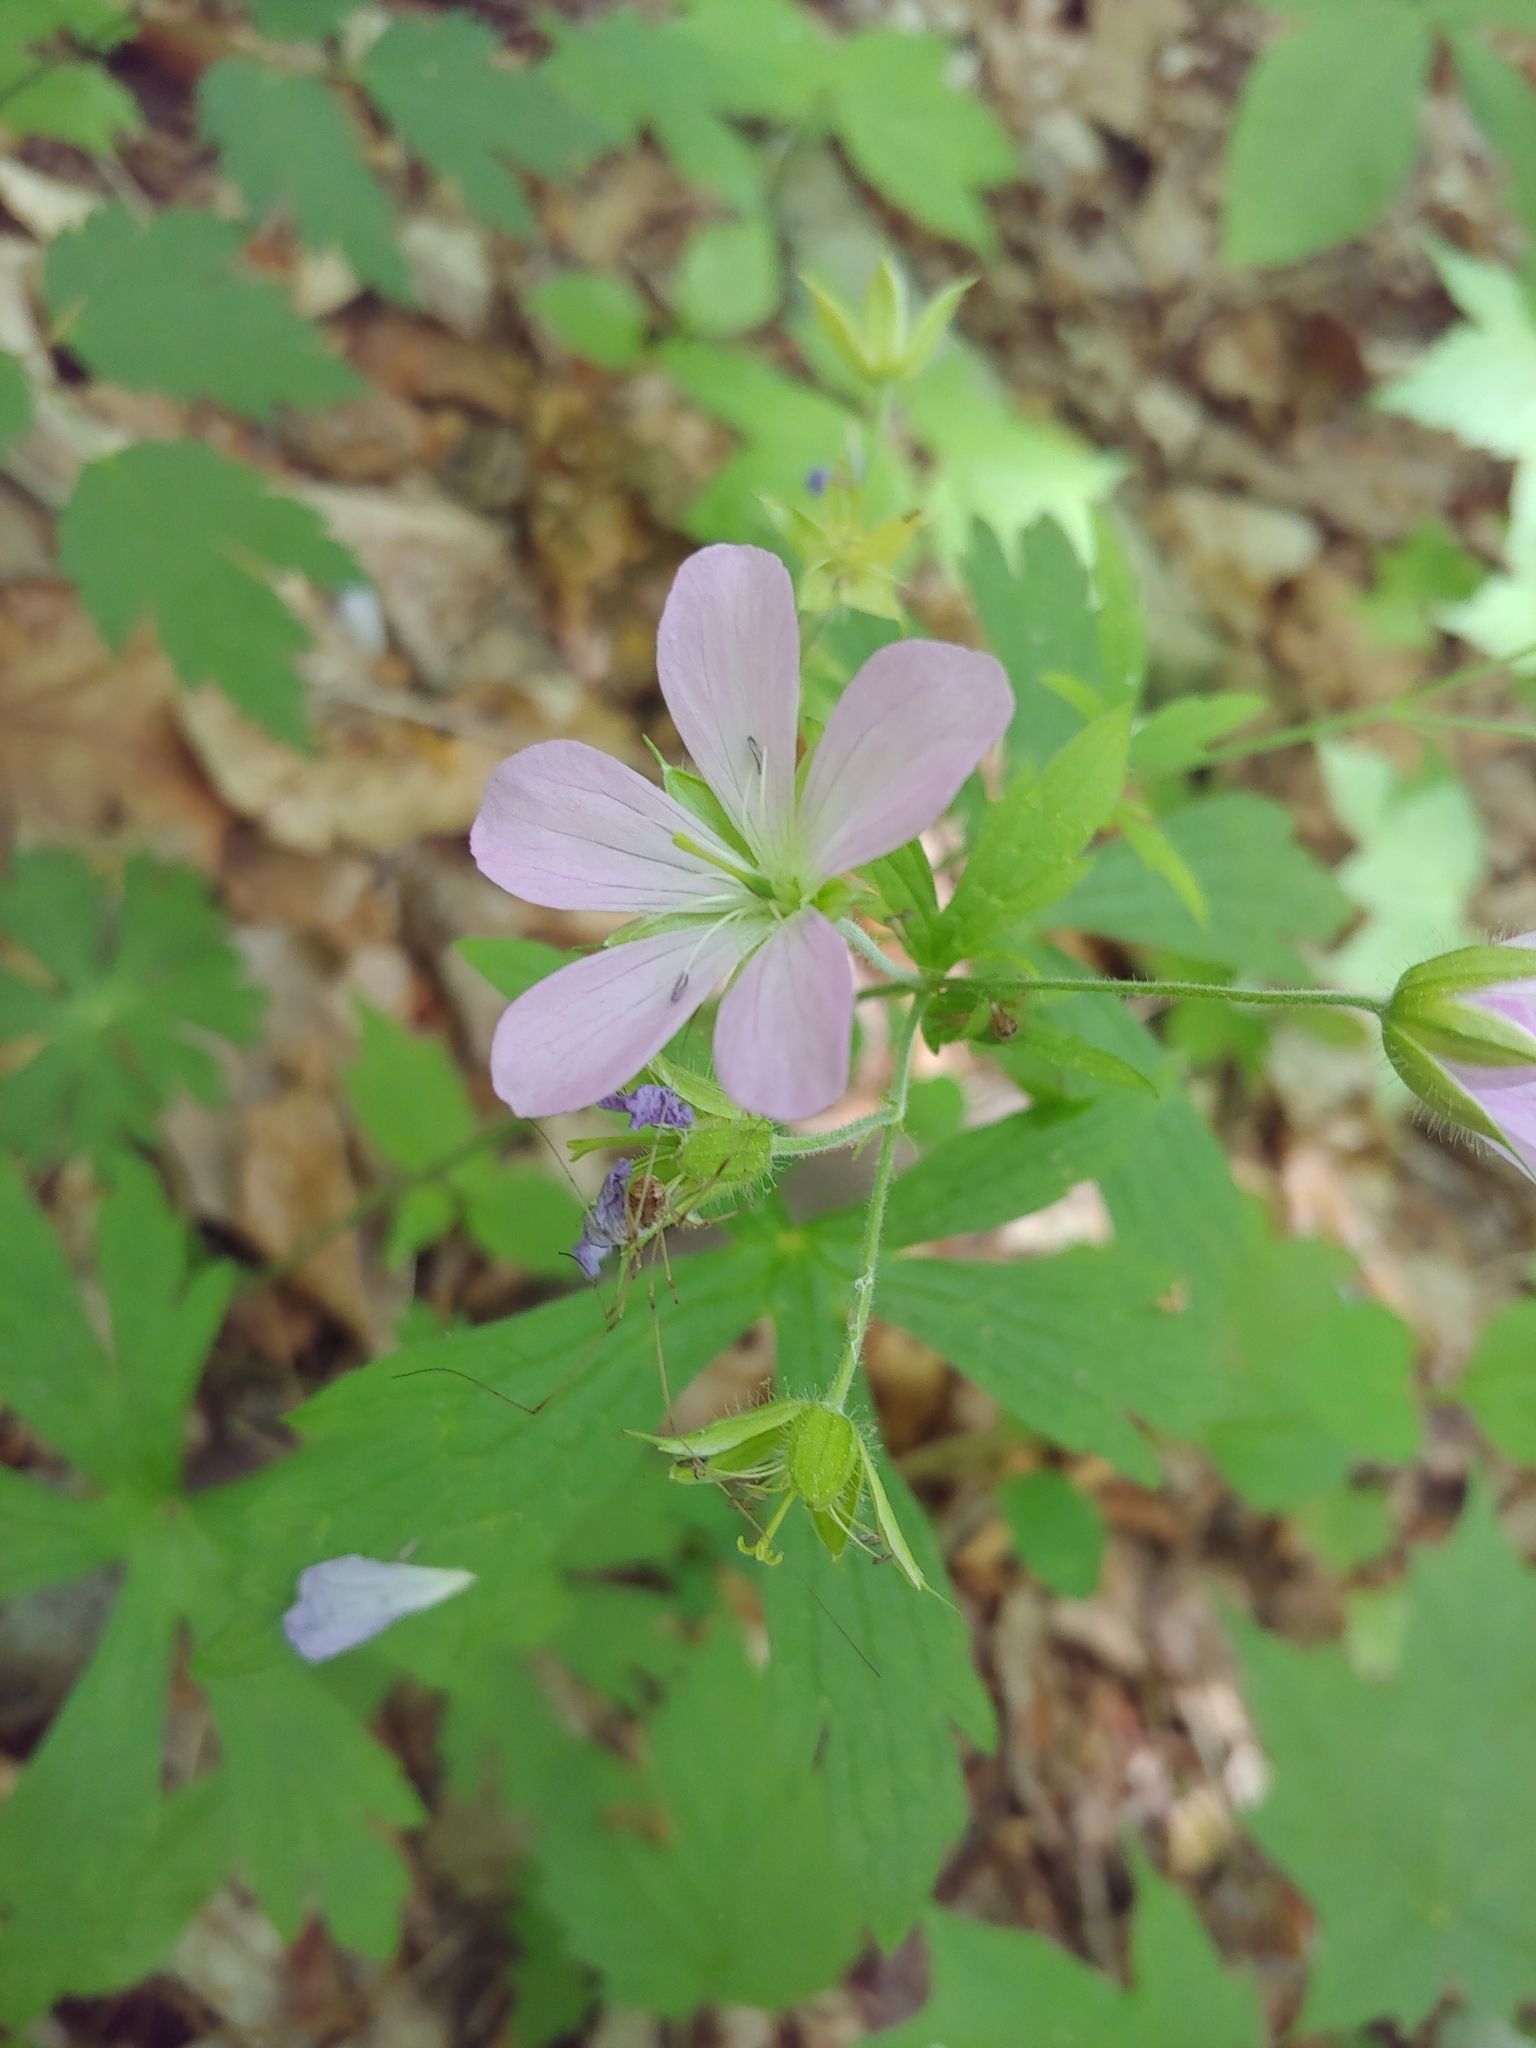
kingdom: Plantae
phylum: Tracheophyta
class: Magnoliopsida
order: Geraniales
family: Geraniaceae
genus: Geranium
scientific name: Geranium maculatum
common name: Spotted geranium
